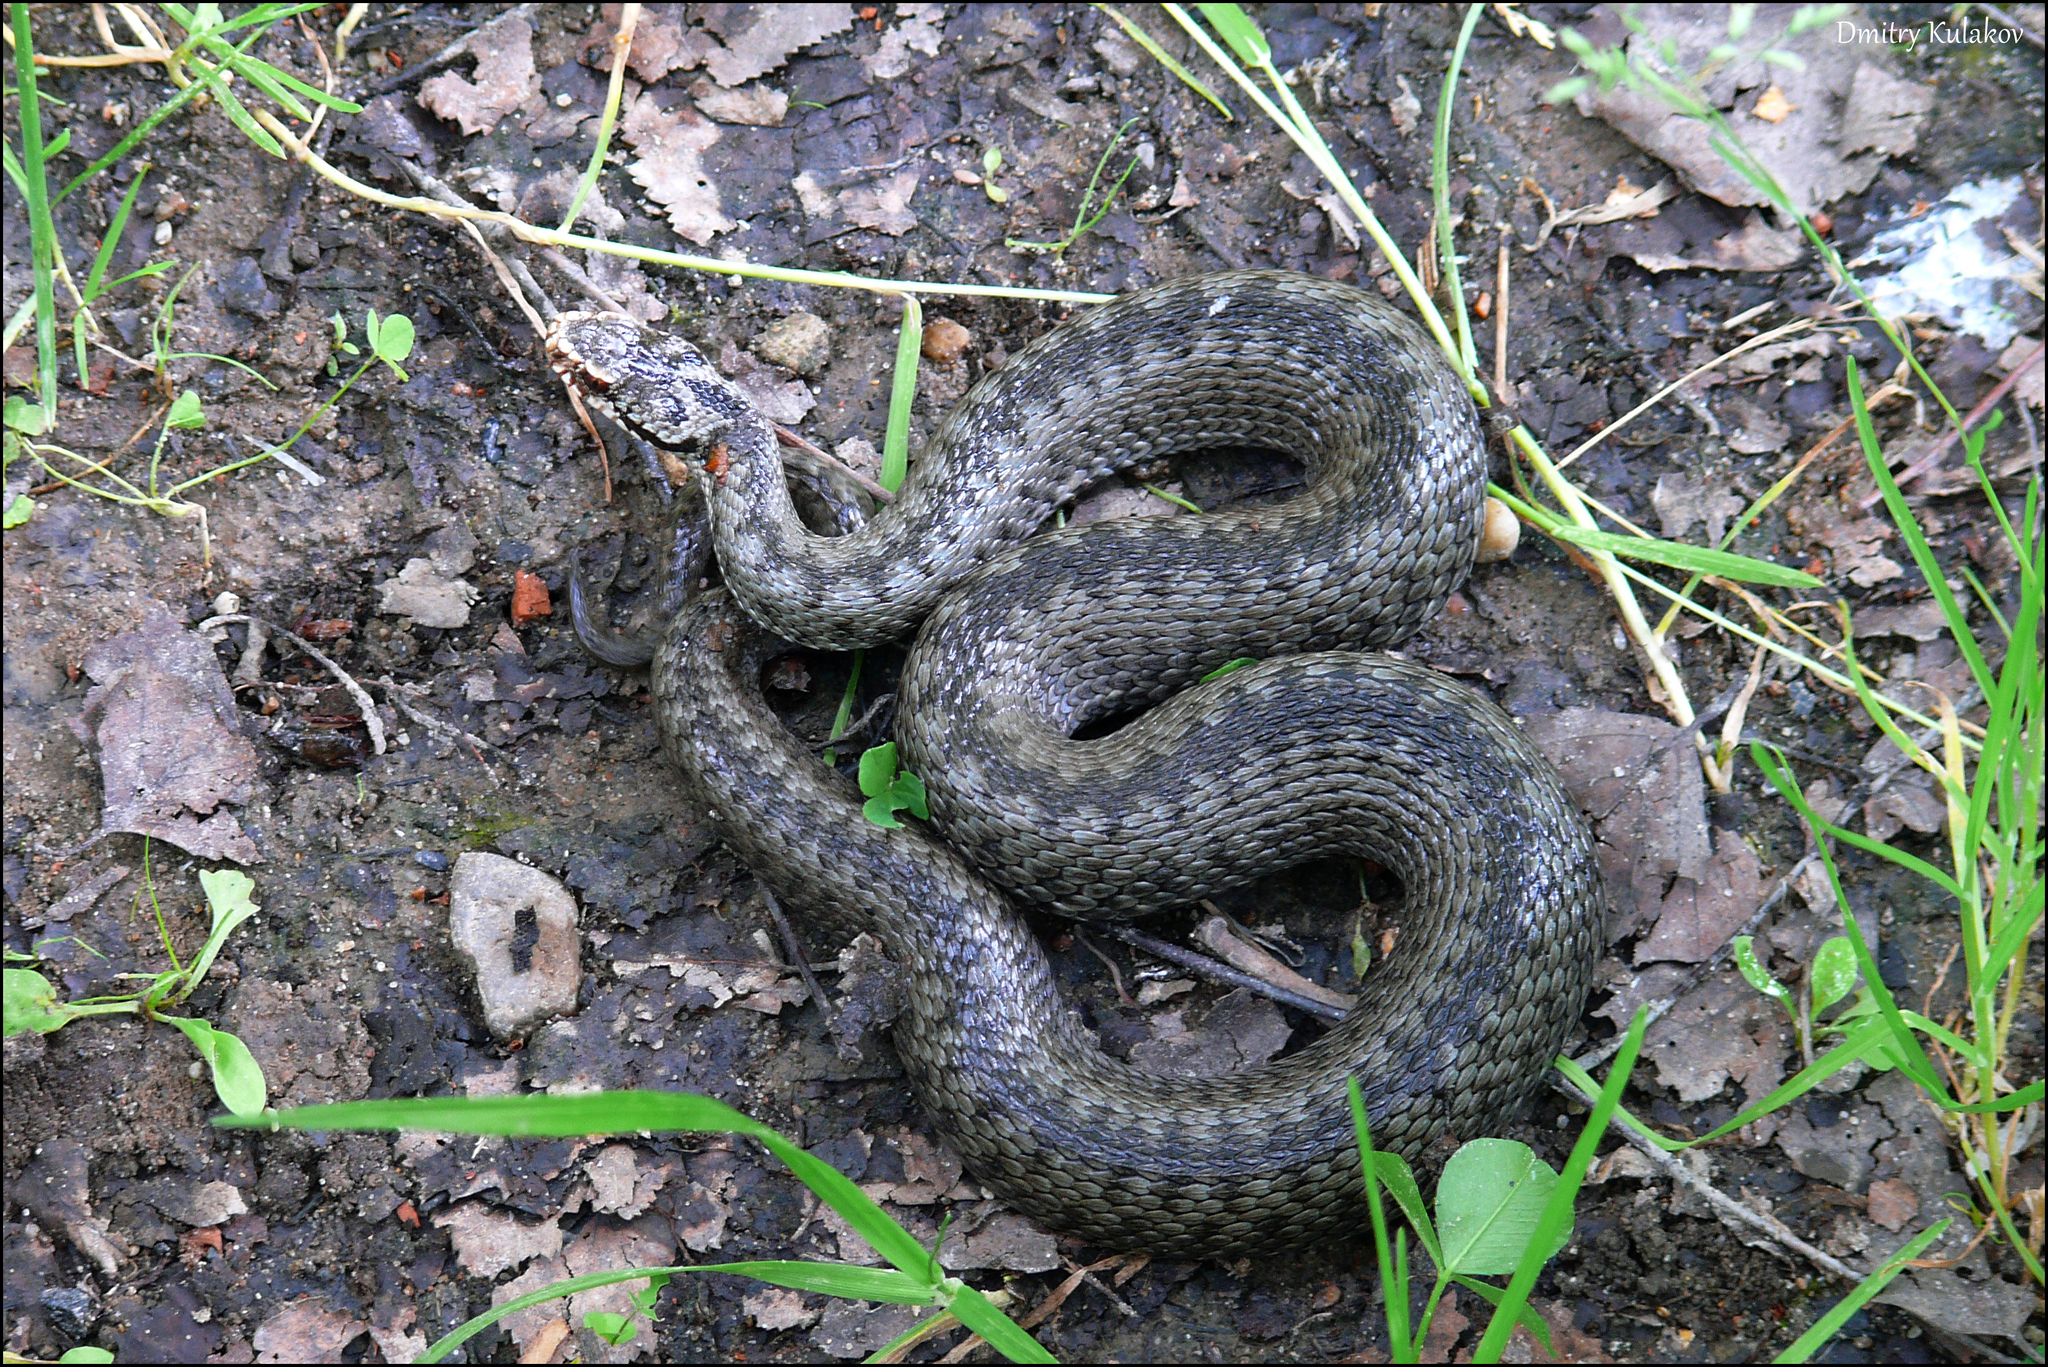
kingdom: Animalia
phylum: Chordata
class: Squamata
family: Viperidae
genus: Vipera
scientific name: Vipera berus
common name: Adder
